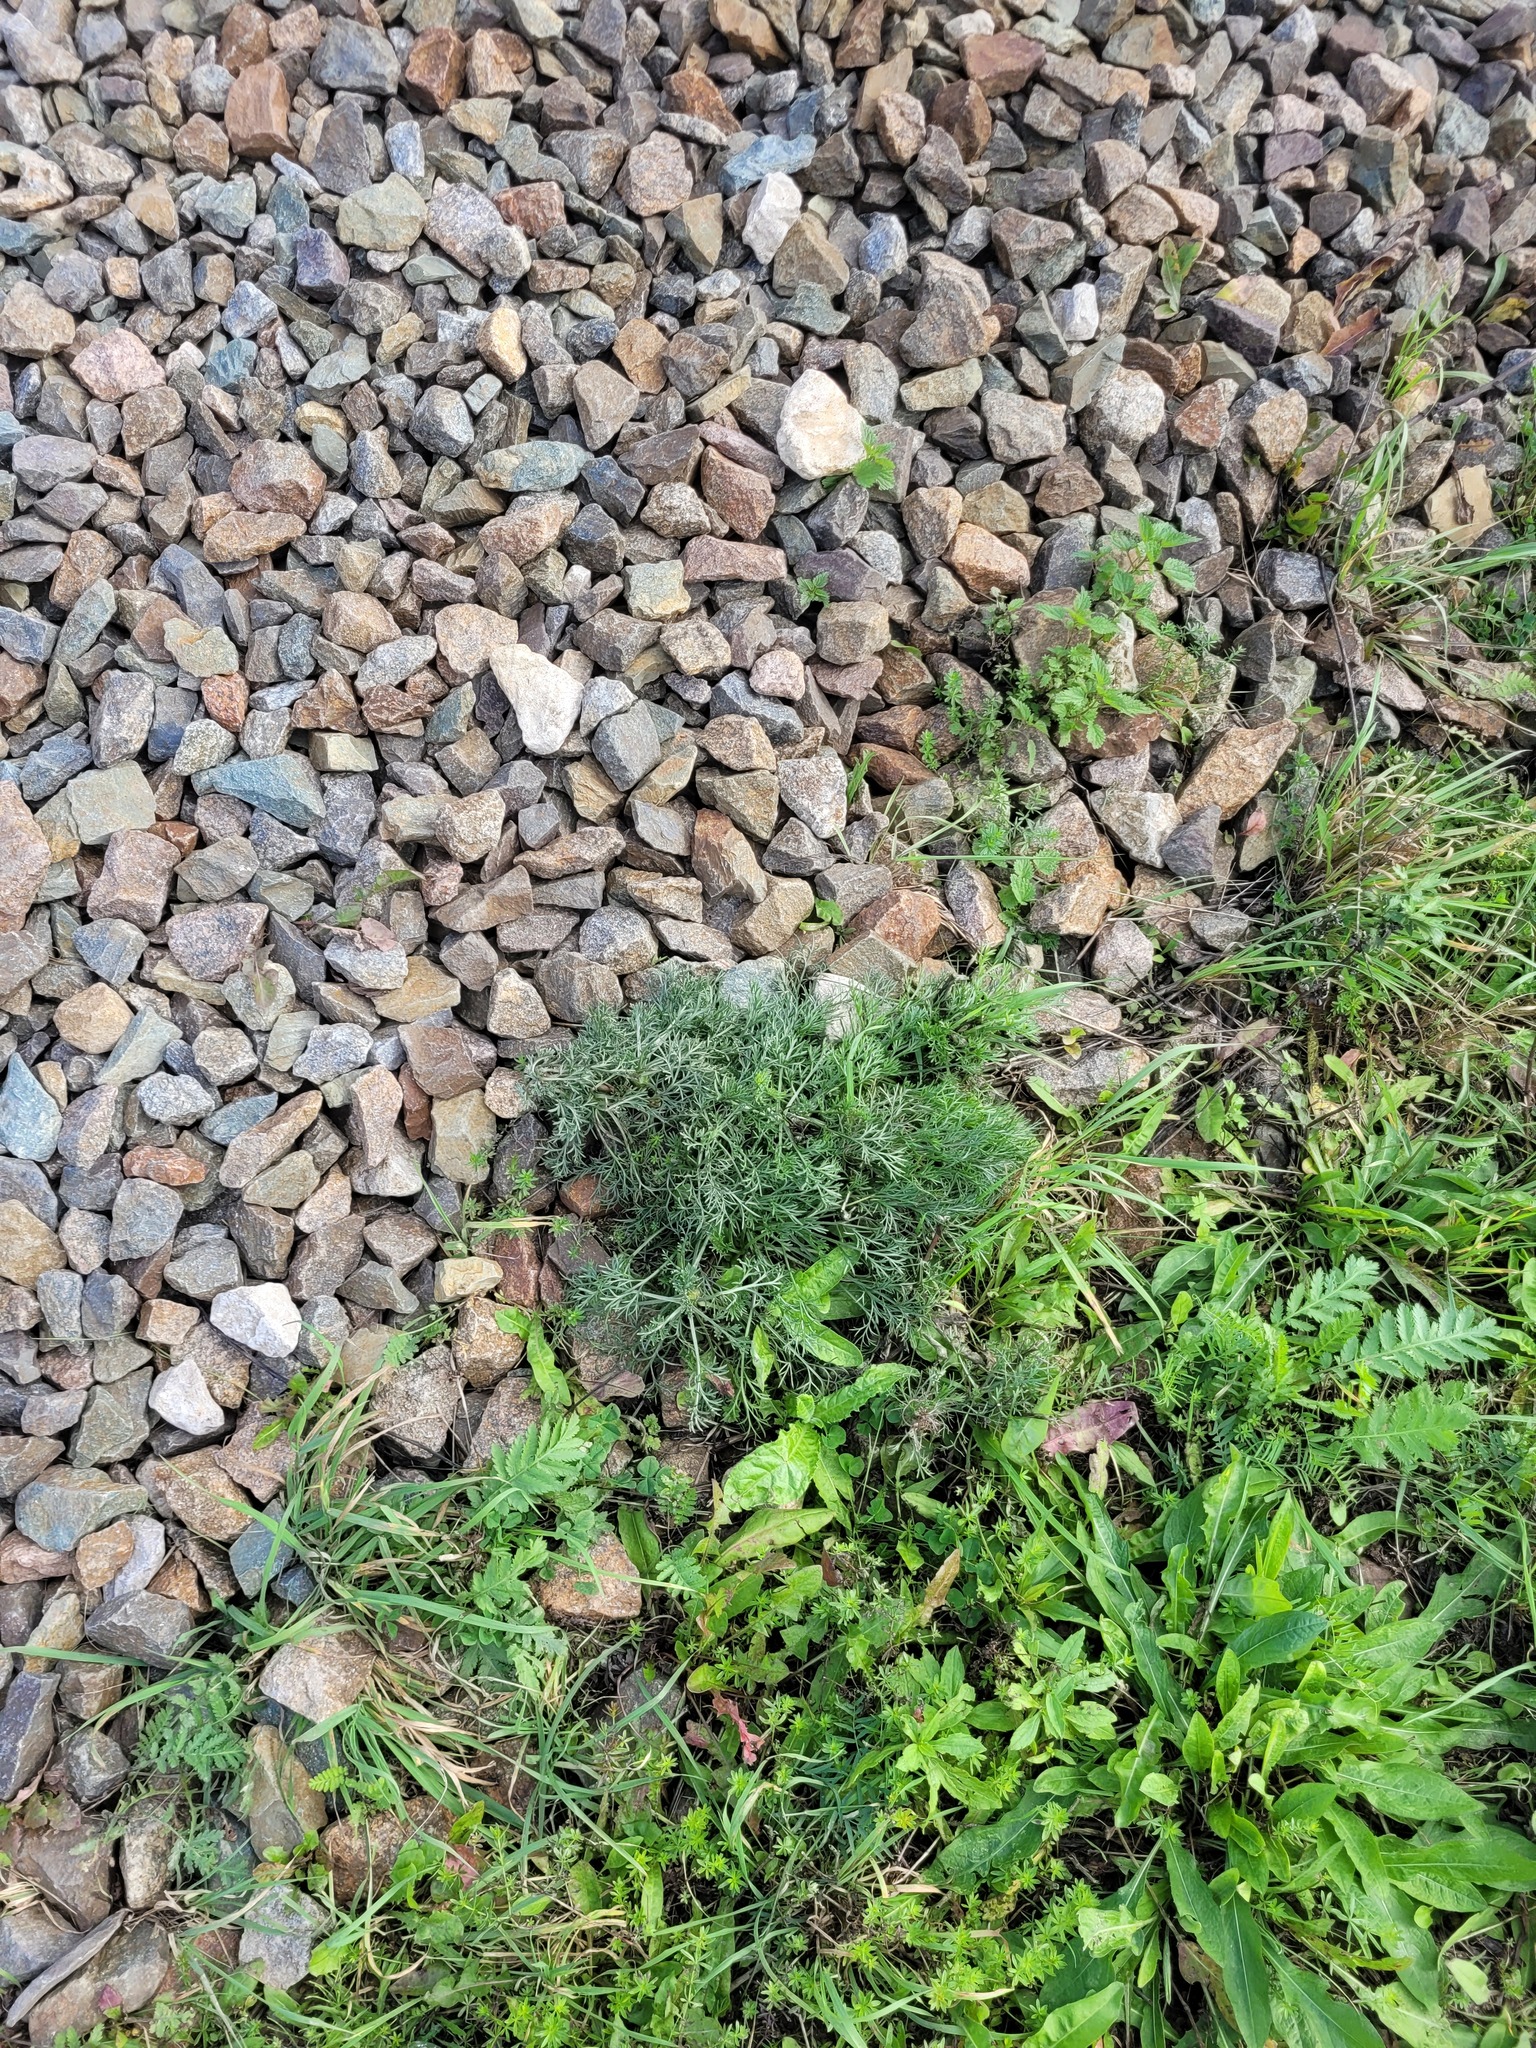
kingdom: Plantae
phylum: Tracheophyta
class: Magnoliopsida
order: Asterales
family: Asteraceae
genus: Artemisia
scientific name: Artemisia campestris
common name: Field wormwood
